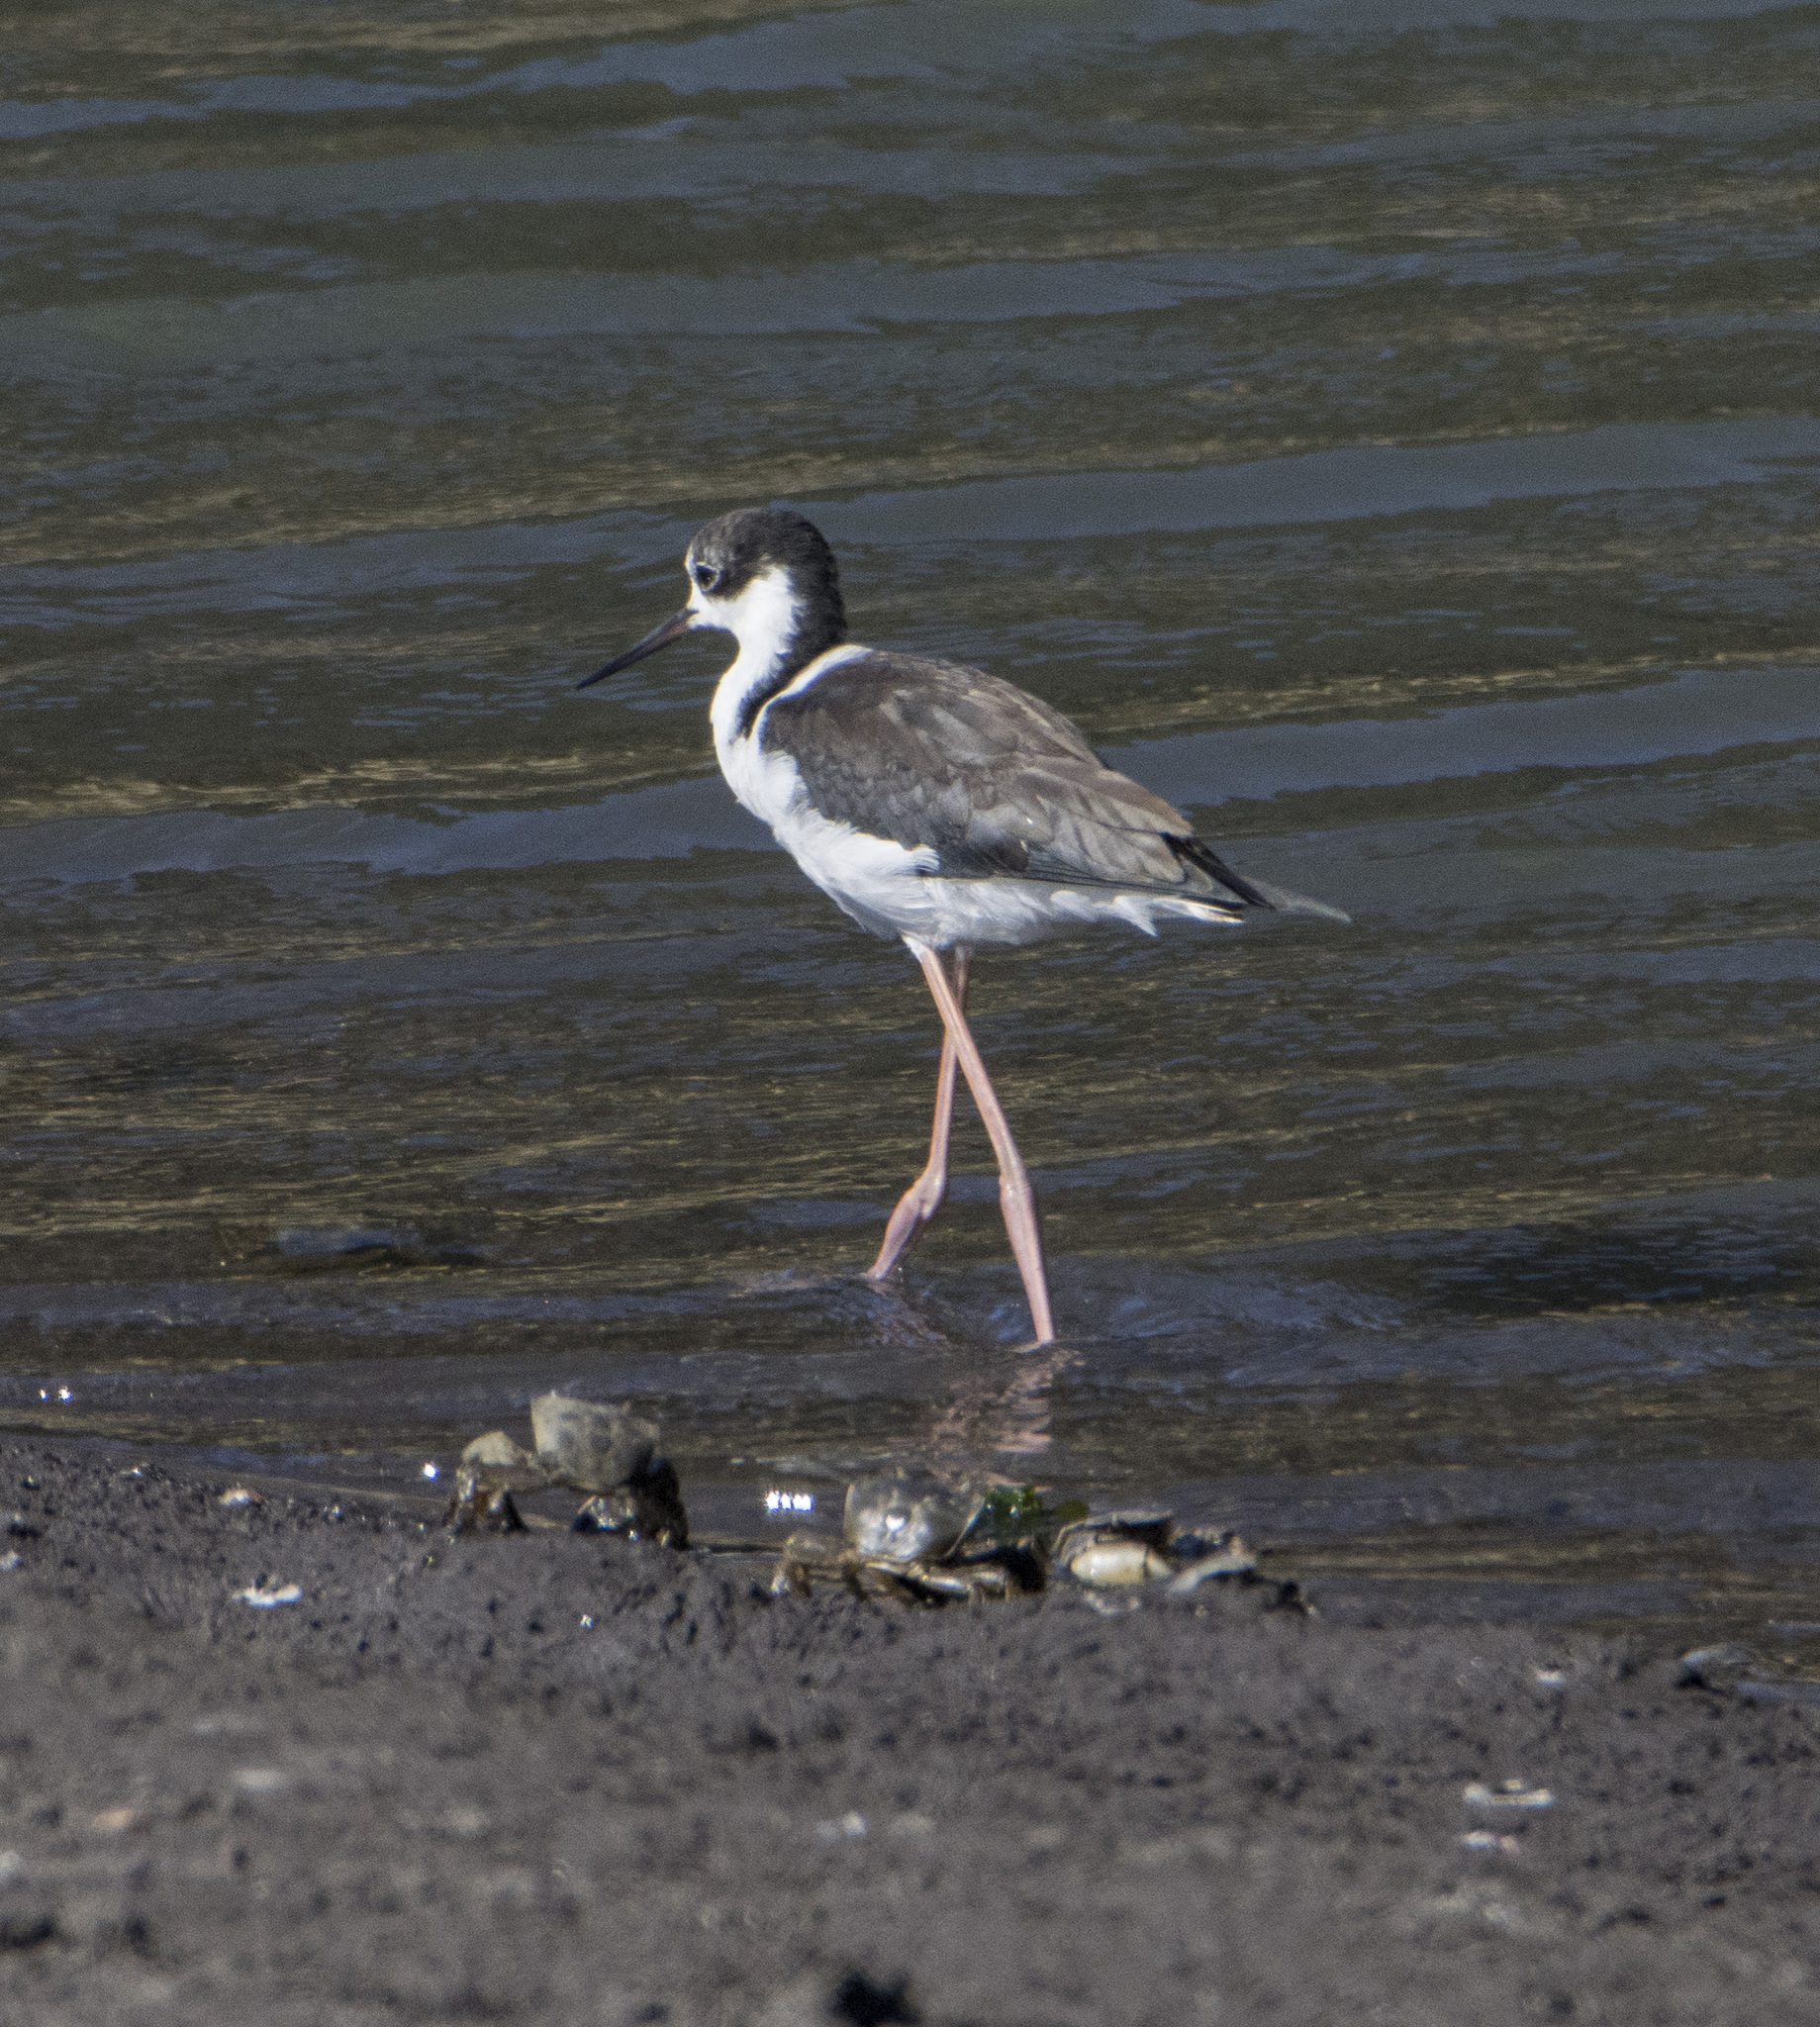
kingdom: Animalia
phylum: Chordata
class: Aves
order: Charadriiformes
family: Recurvirostridae
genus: Himantopus
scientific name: Himantopus mexicanus
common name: Black-necked stilt
